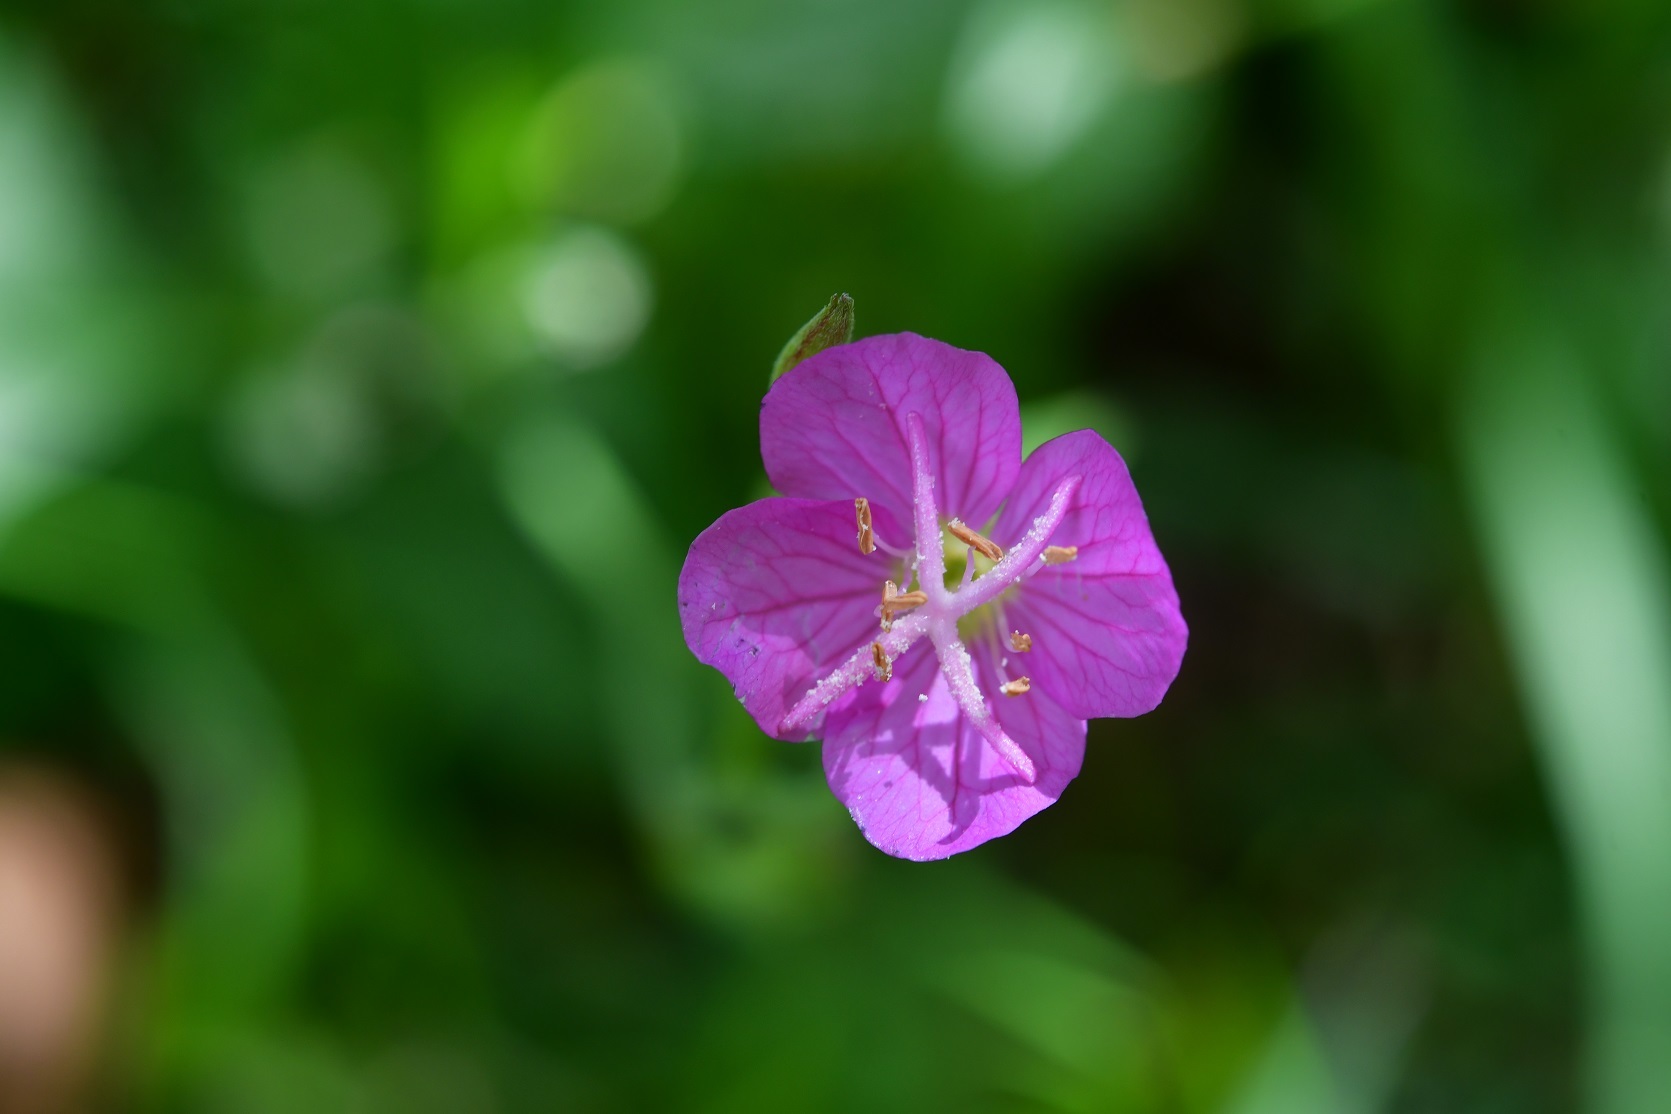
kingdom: Plantae
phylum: Tracheophyta
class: Magnoliopsida
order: Myrtales
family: Onagraceae
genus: Oenothera
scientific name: Oenothera rosea
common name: Rosy evening-primrose
